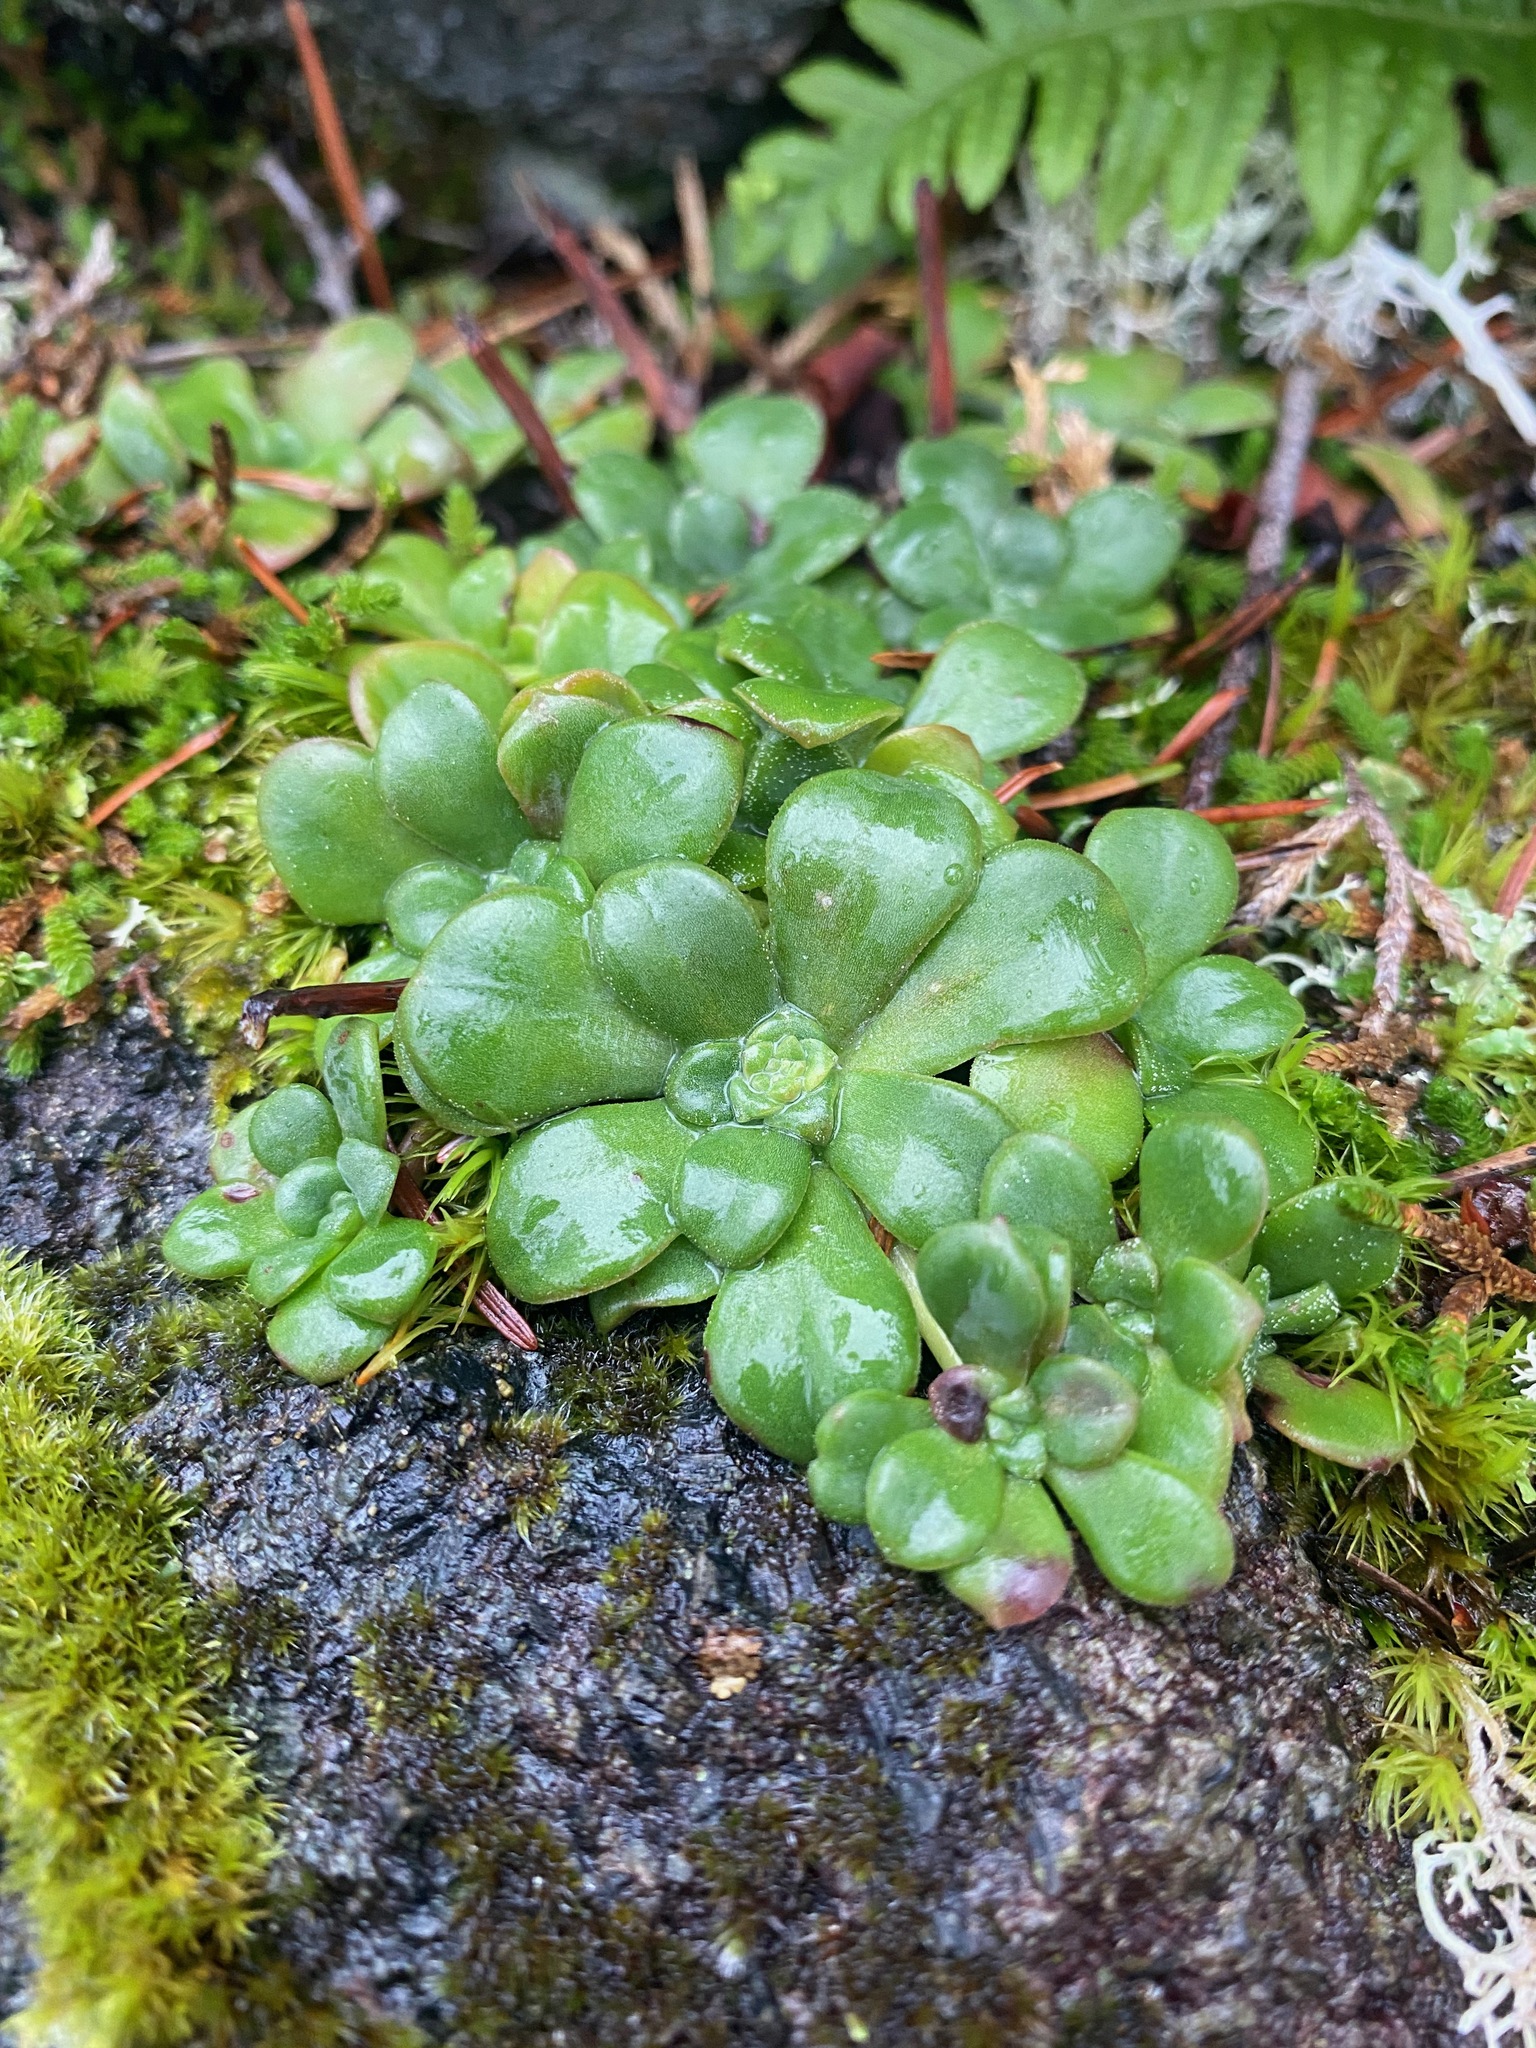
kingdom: Plantae
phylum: Tracheophyta
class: Magnoliopsida
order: Saxifragales
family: Crassulaceae
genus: Sedum
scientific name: Sedum spathulifolium
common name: Colorado stonecrop
